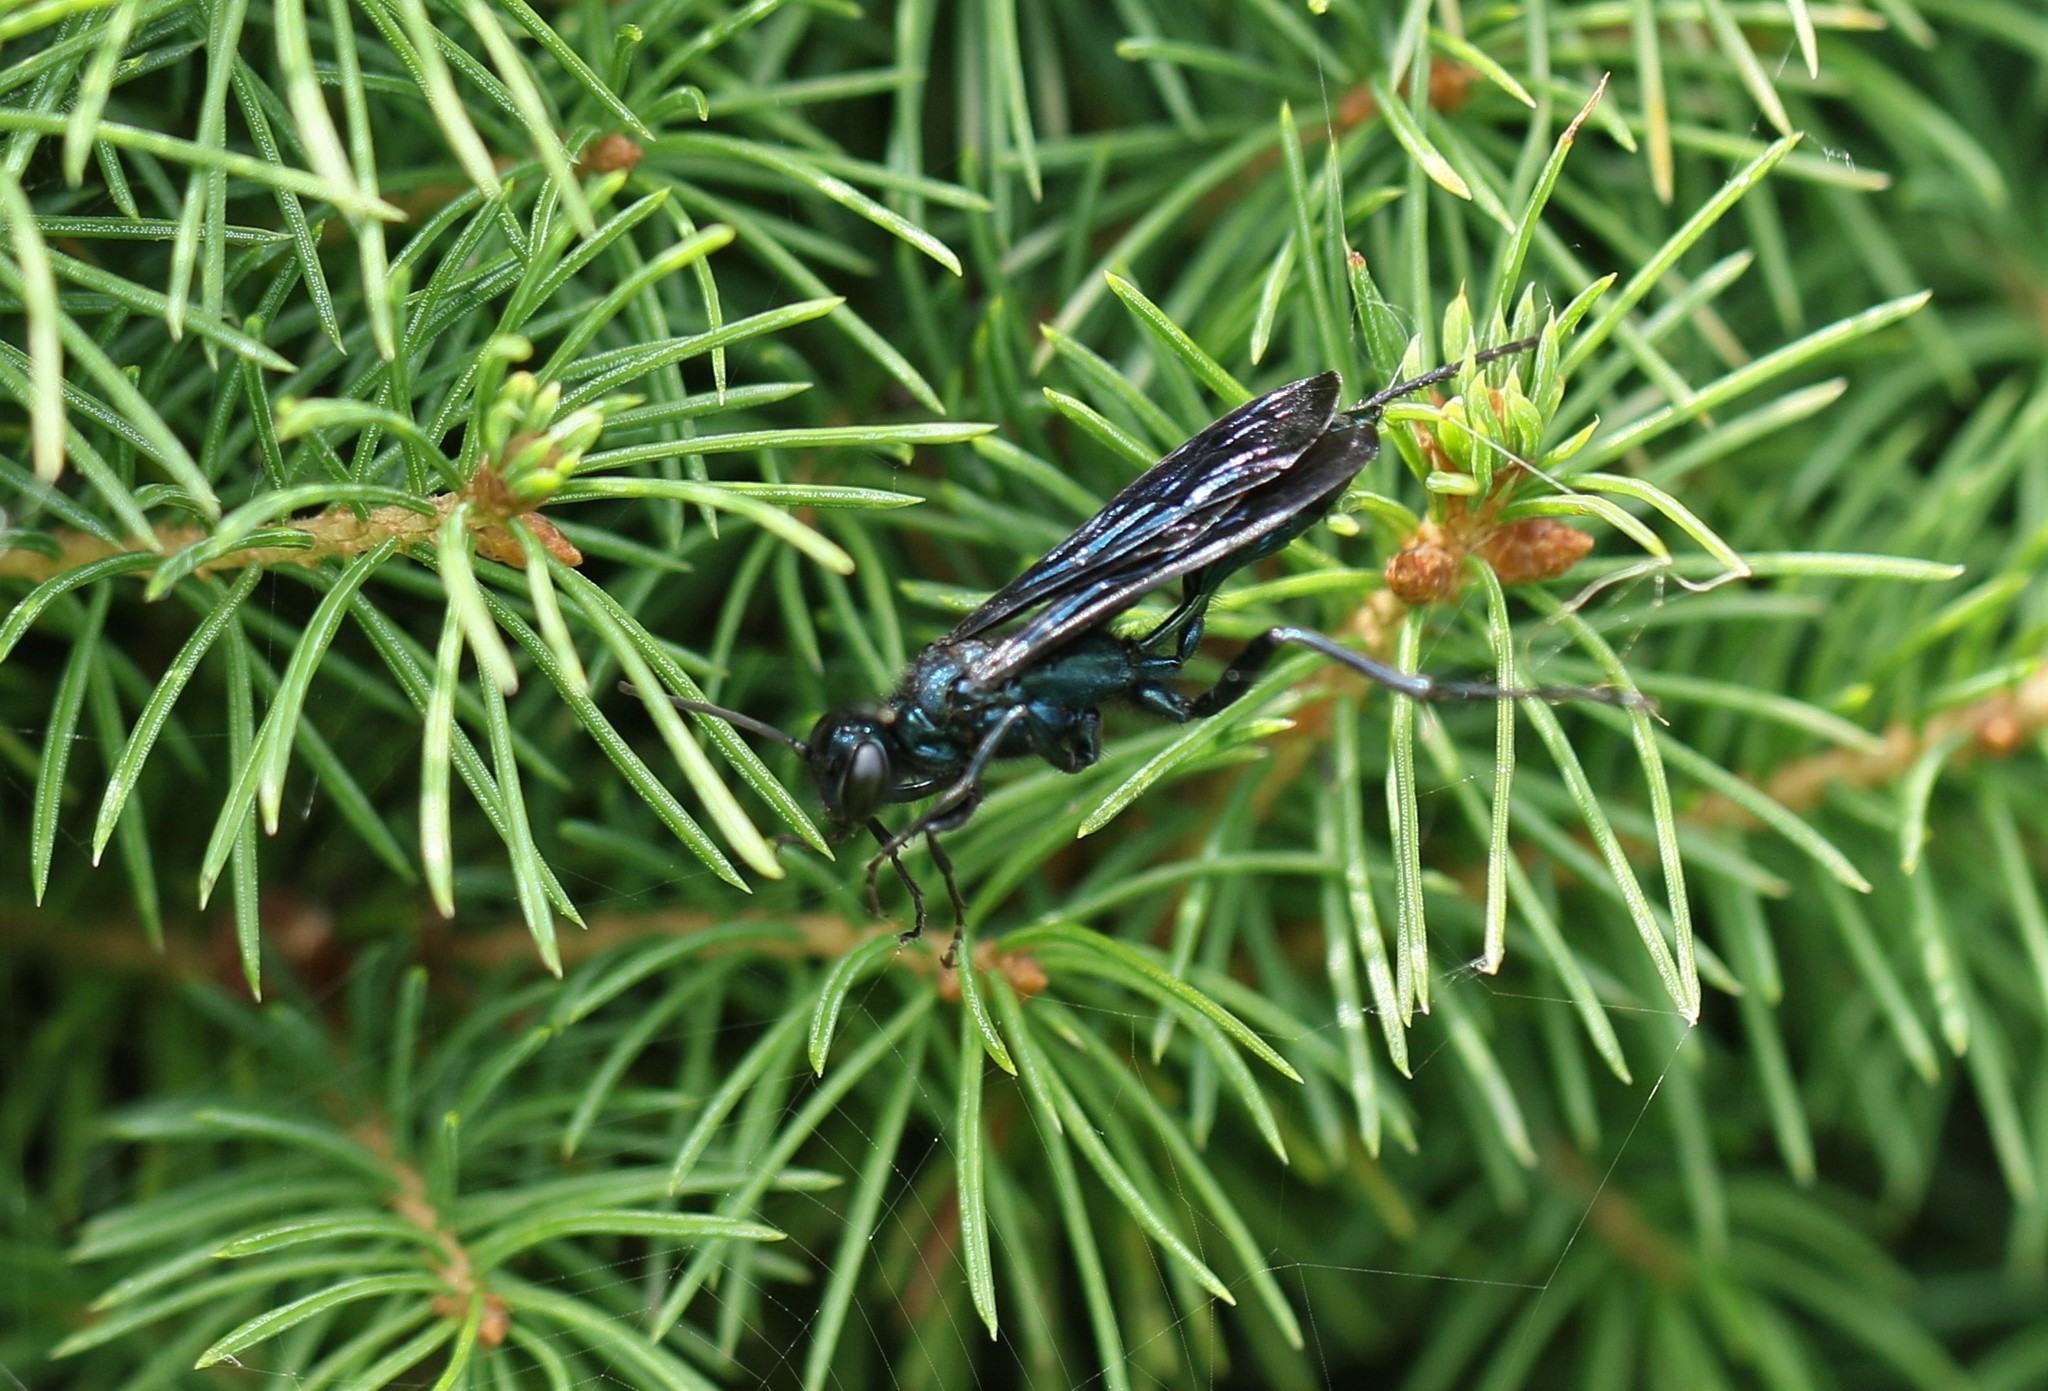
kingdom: Animalia
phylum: Arthropoda
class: Insecta
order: Hymenoptera
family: Sphecidae
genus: Chalybion
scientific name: Chalybion californicum
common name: Mud dauber
